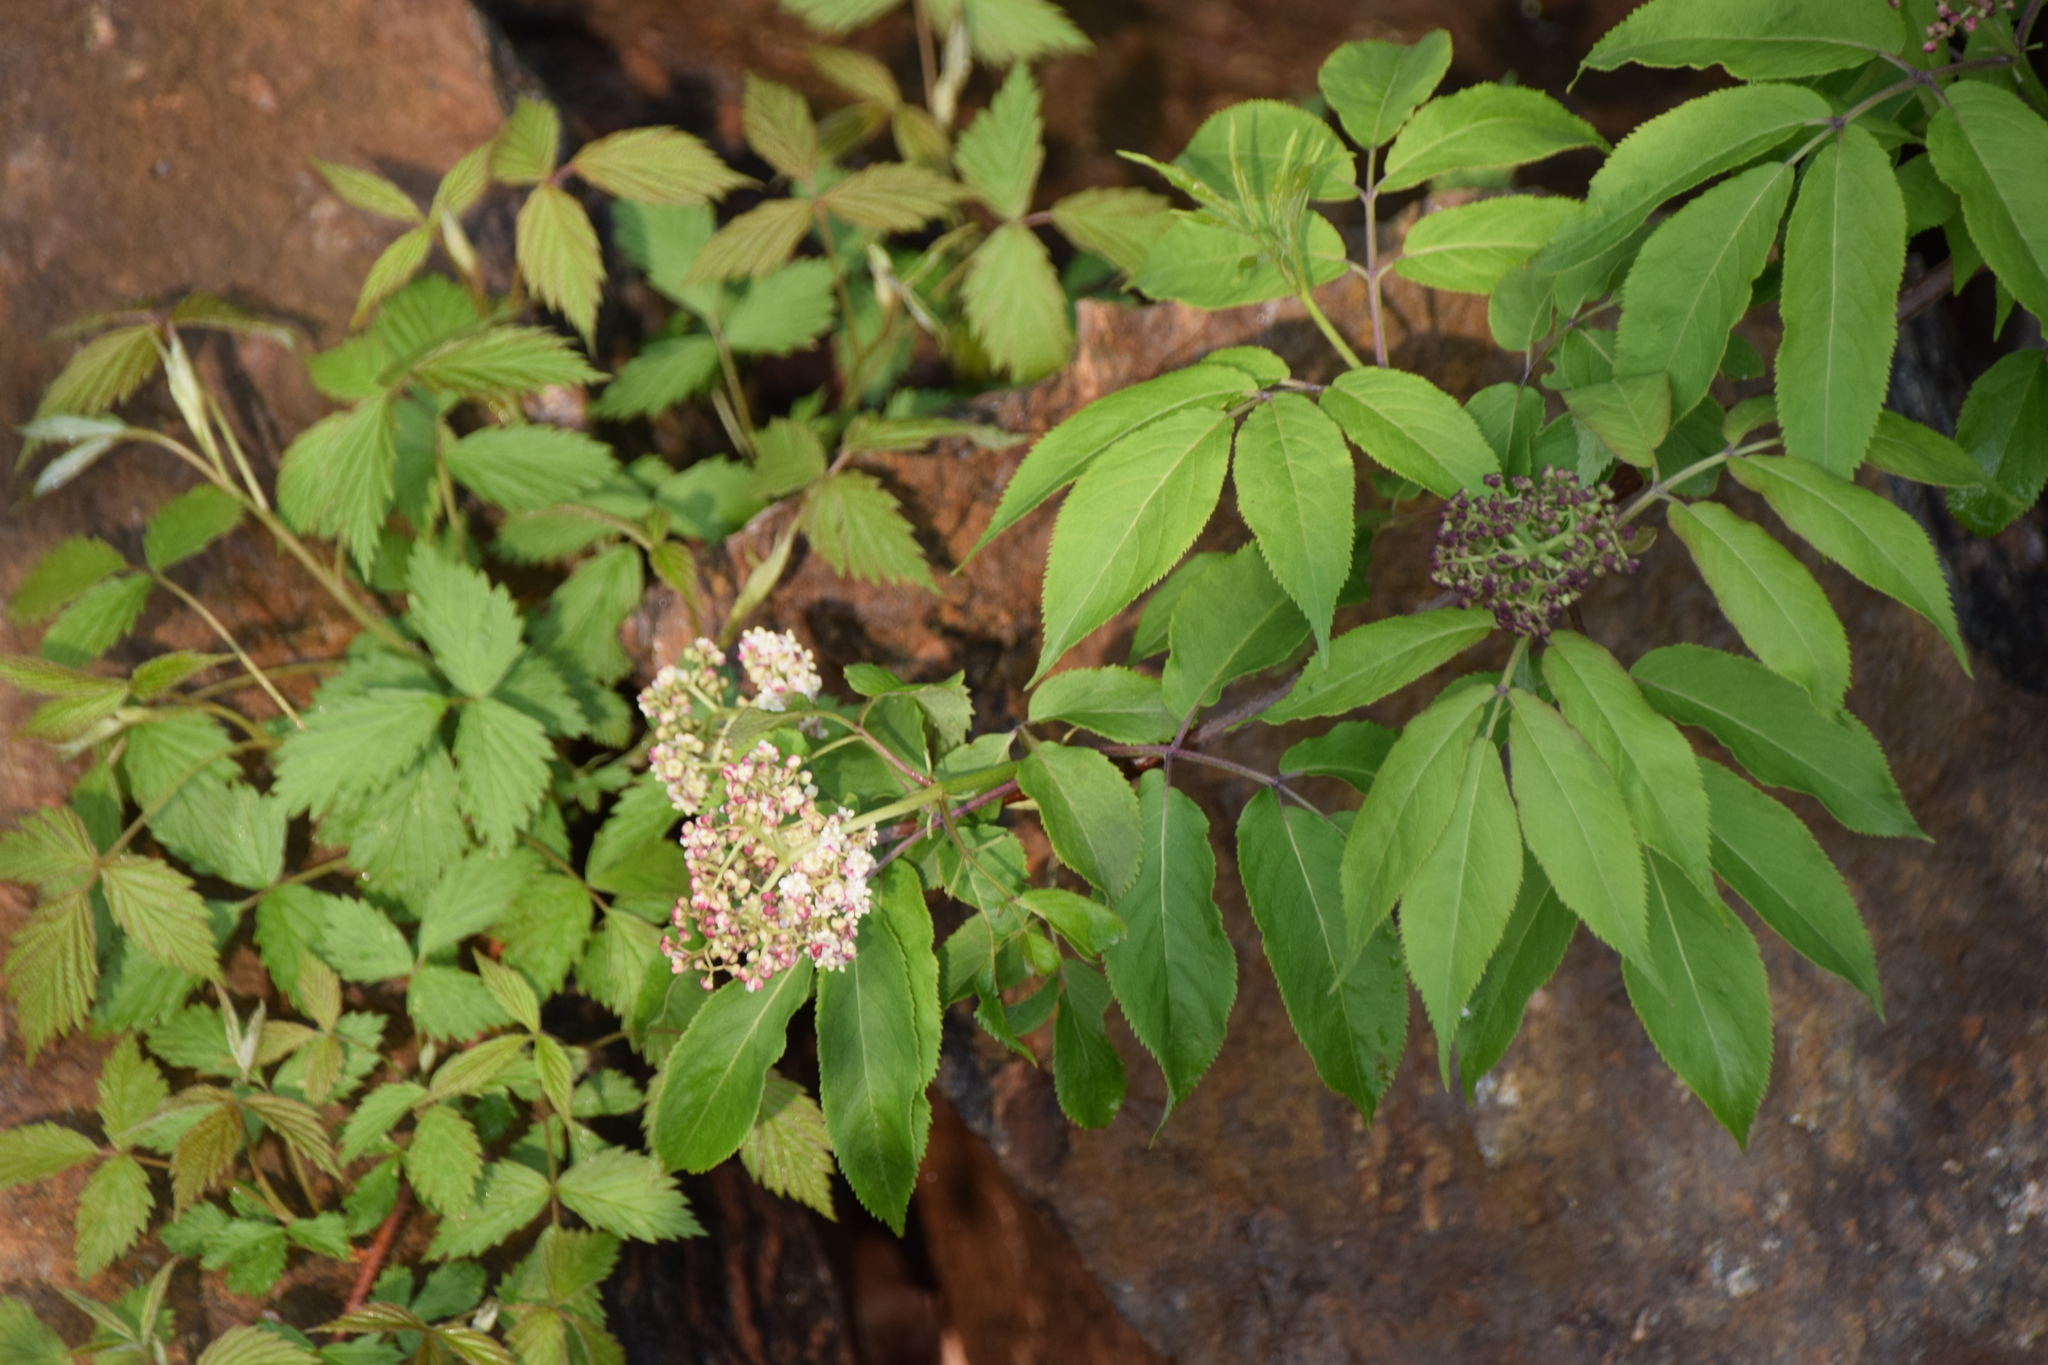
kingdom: Plantae
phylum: Tracheophyta
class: Magnoliopsida
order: Dipsacales
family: Viburnaceae
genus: Sambucus
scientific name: Sambucus racemosa
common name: Red-berried elder
